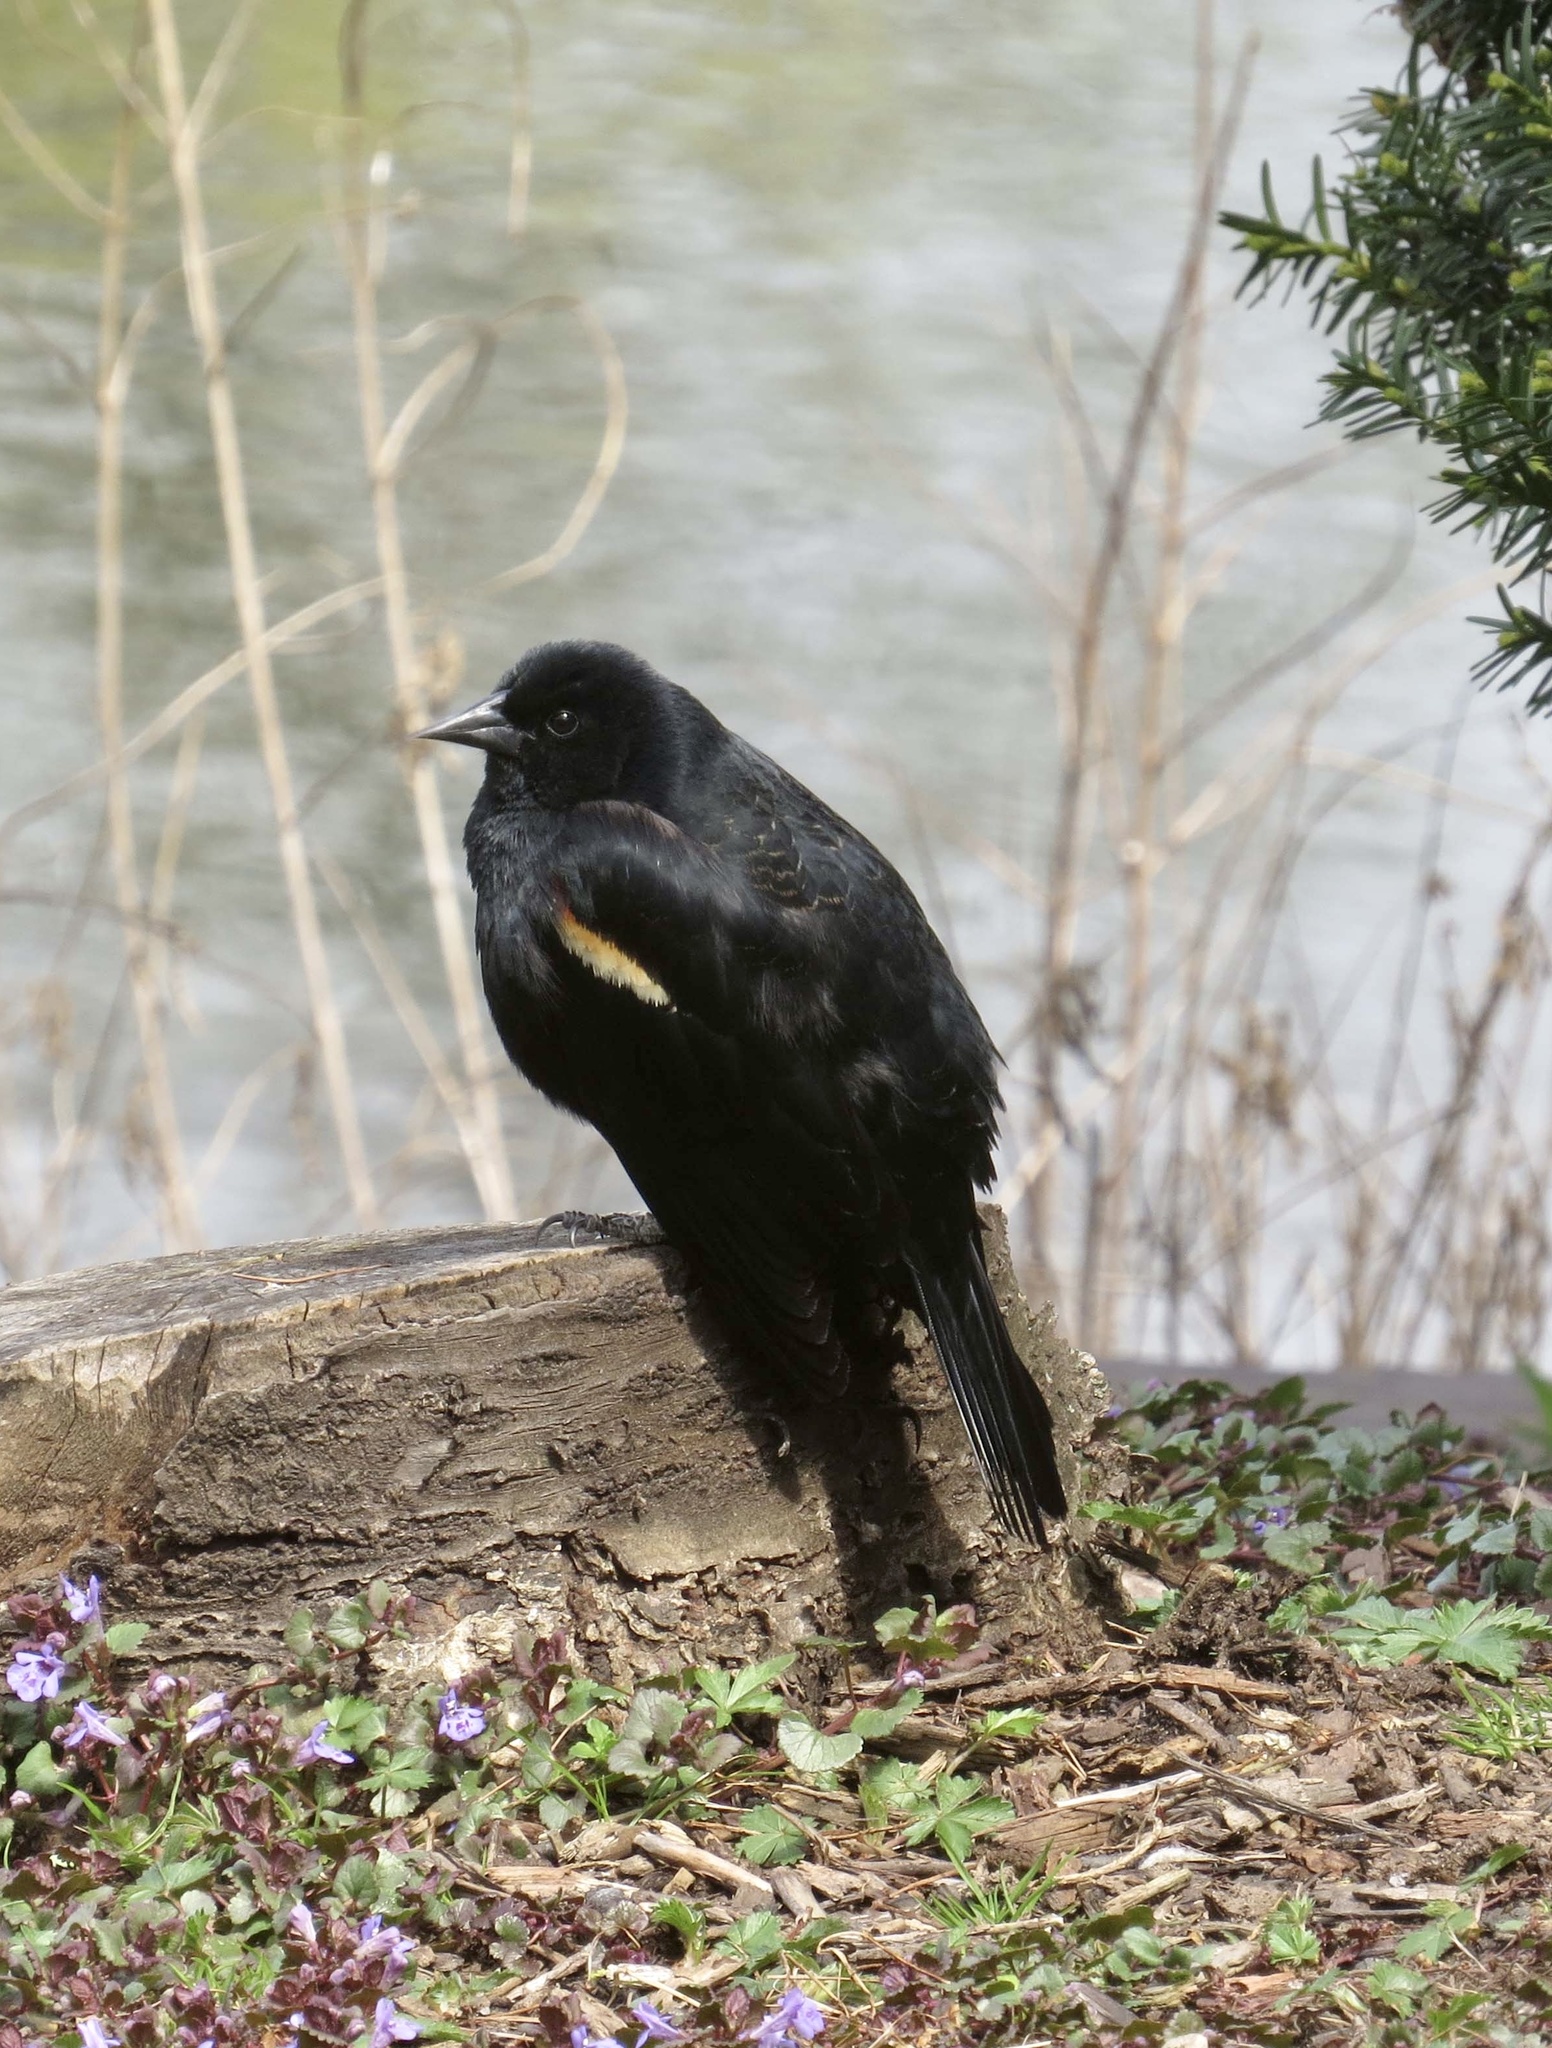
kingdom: Animalia
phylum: Chordata
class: Aves
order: Passeriformes
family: Icteridae
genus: Agelaius
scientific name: Agelaius phoeniceus
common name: Red-winged blackbird
